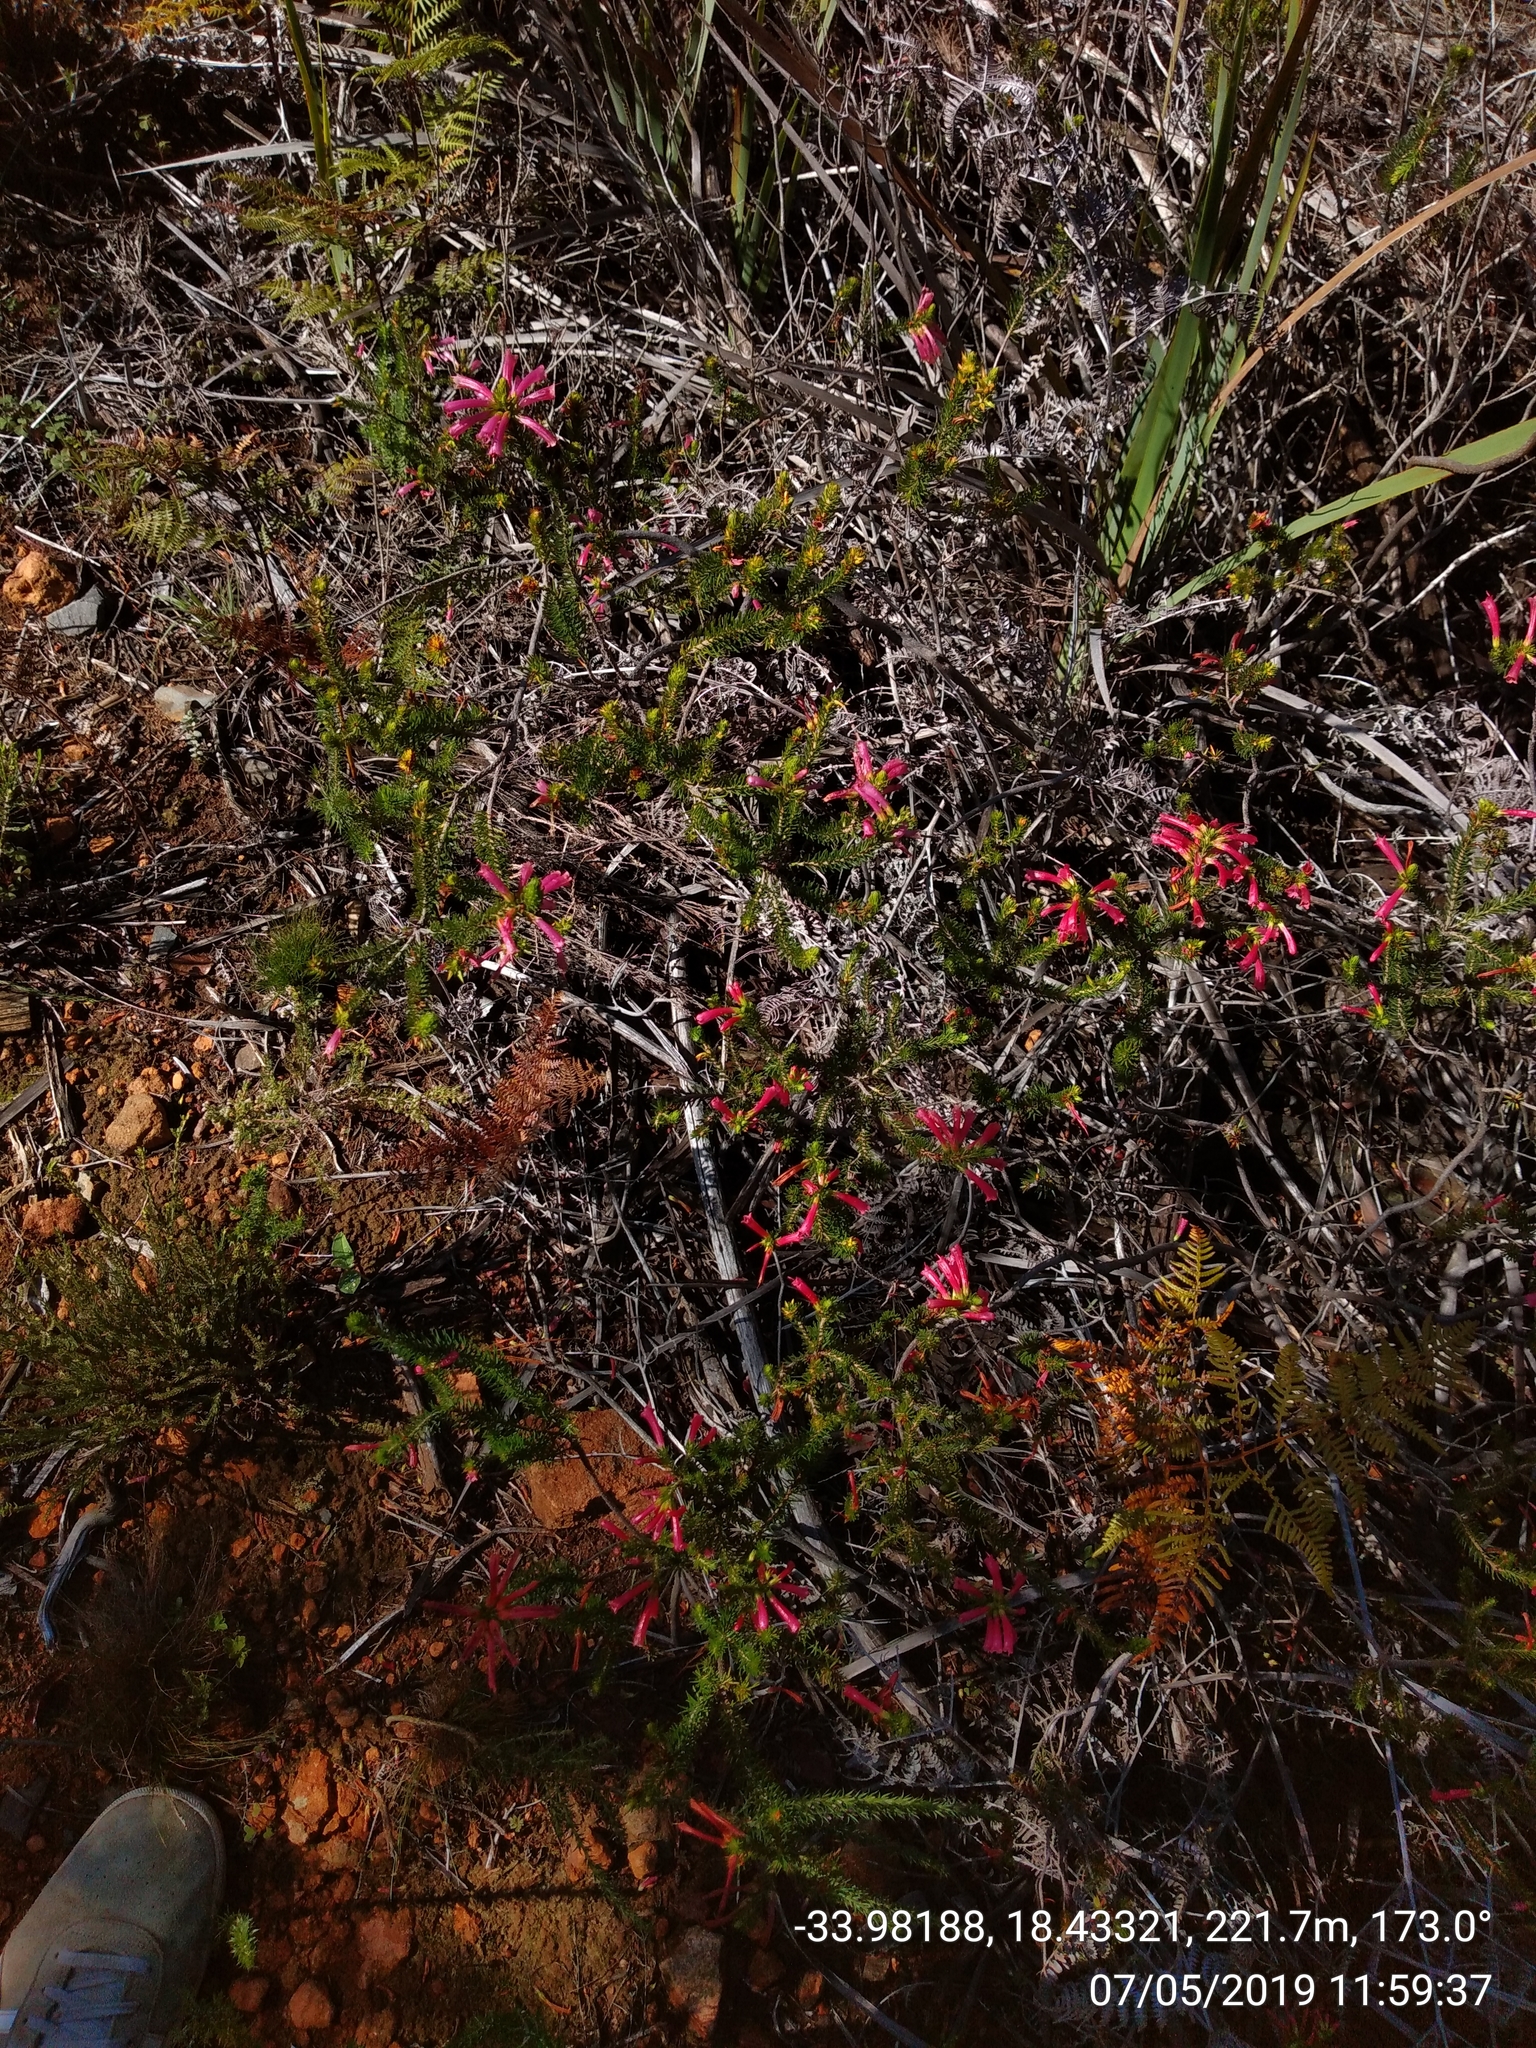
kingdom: Plantae
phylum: Tracheophyta
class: Magnoliopsida
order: Ericales
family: Ericaceae
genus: Erica
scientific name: Erica abietina
